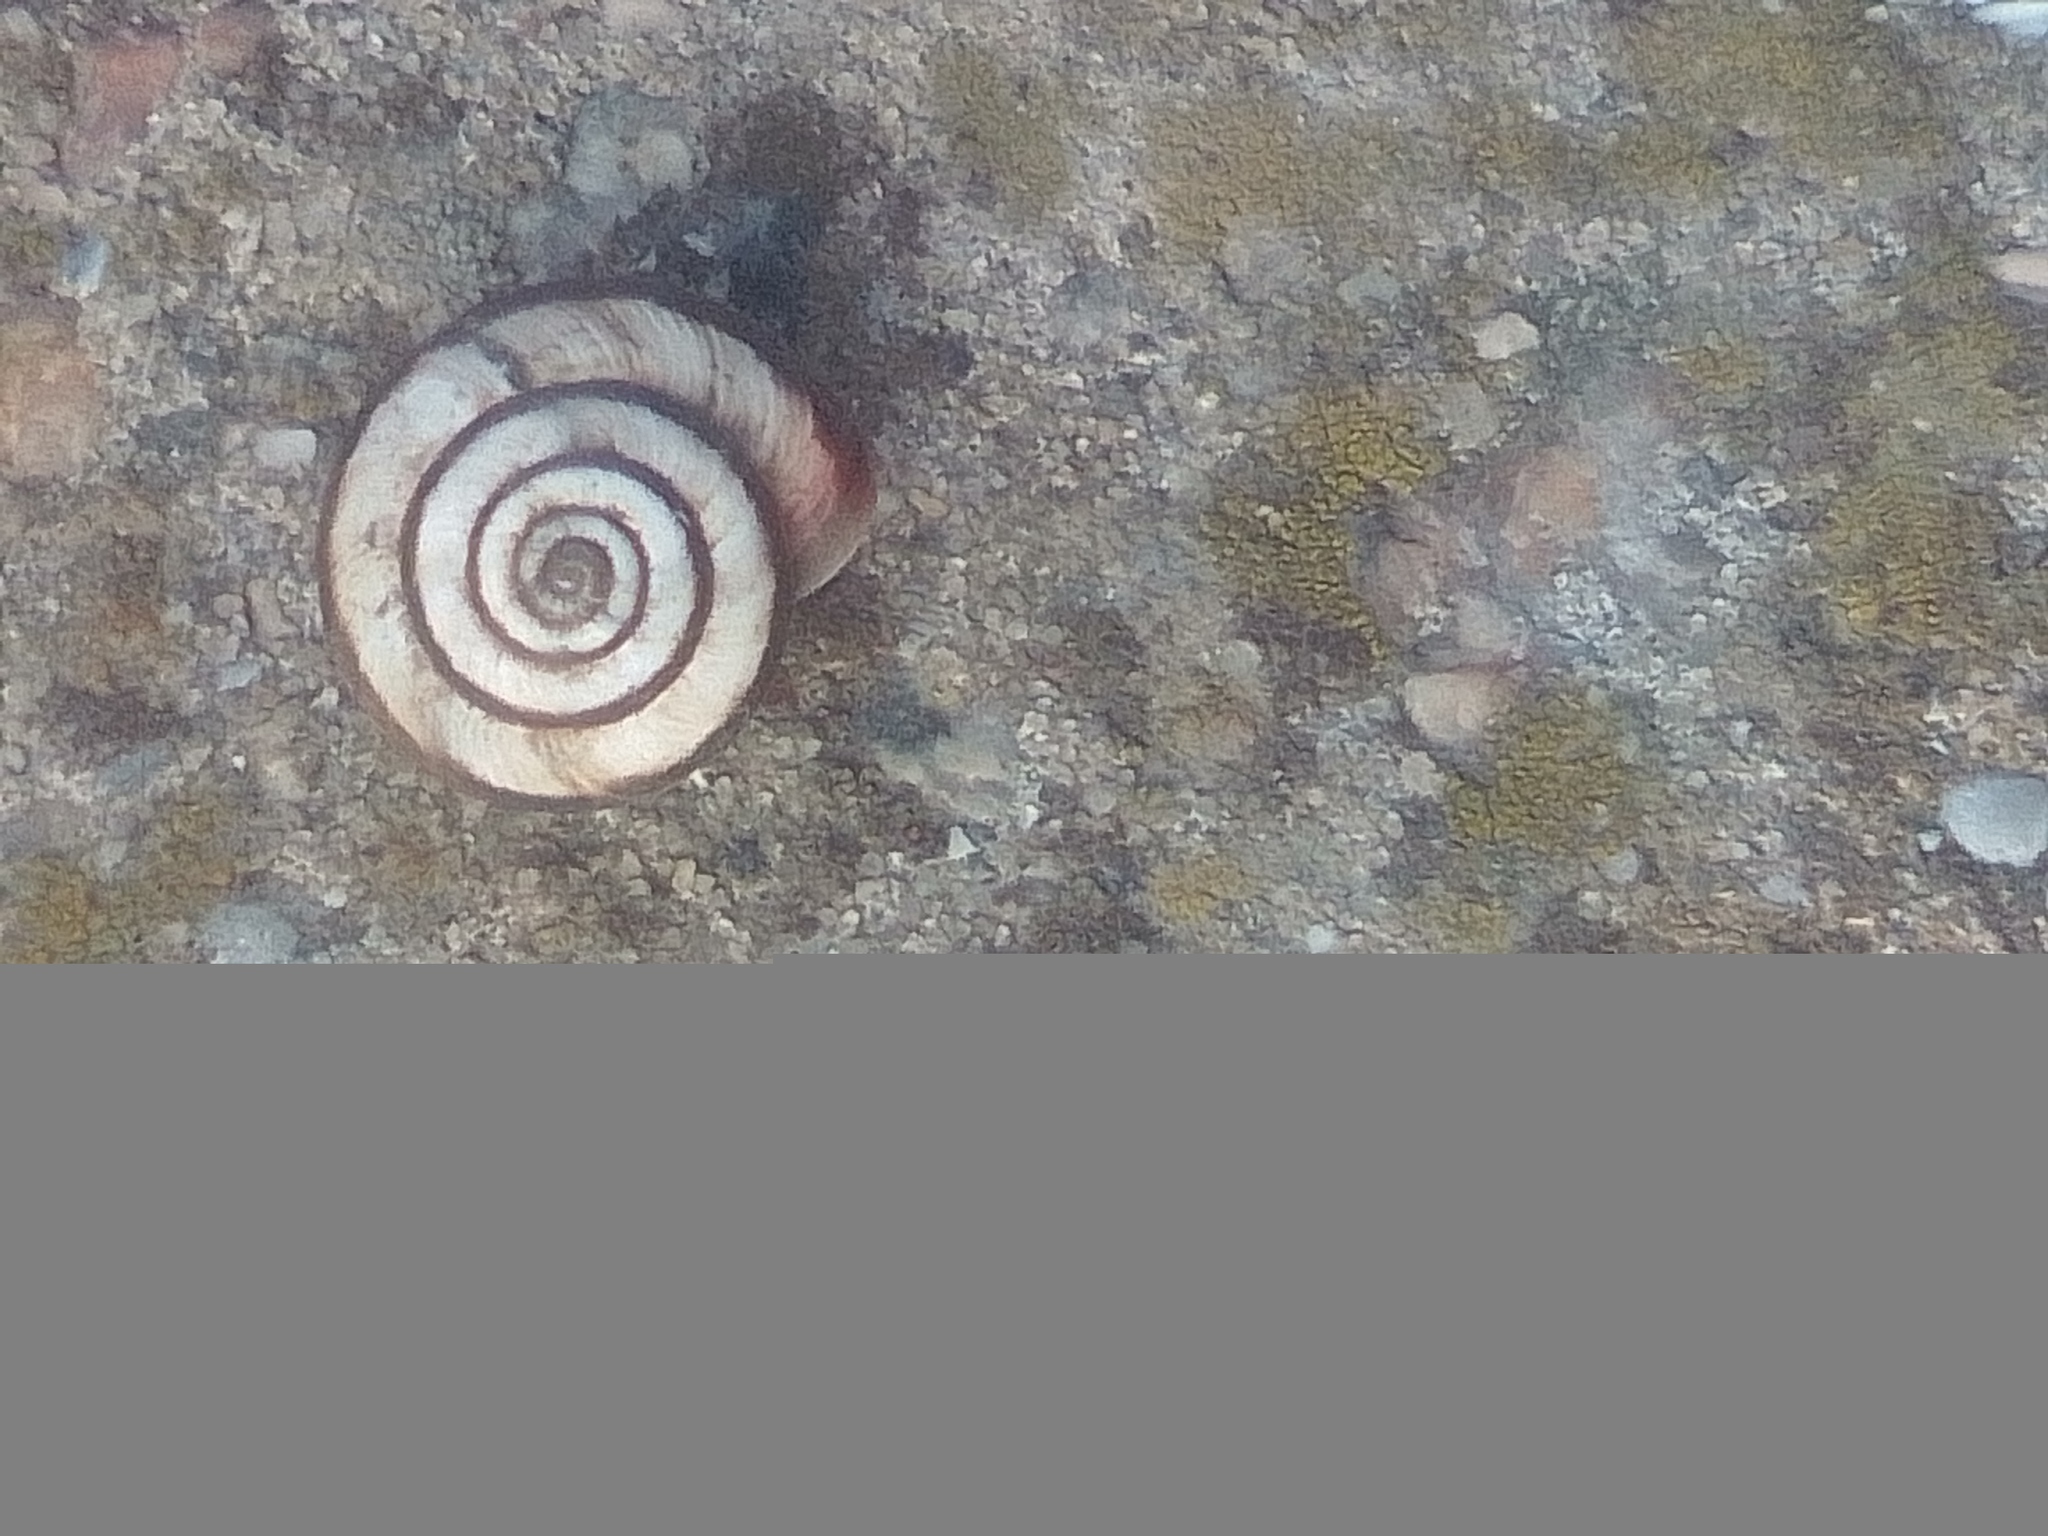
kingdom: Animalia
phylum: Mollusca
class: Gastropoda
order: Stylommatophora
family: Geomitridae
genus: Cernuella
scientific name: Cernuella virgata
